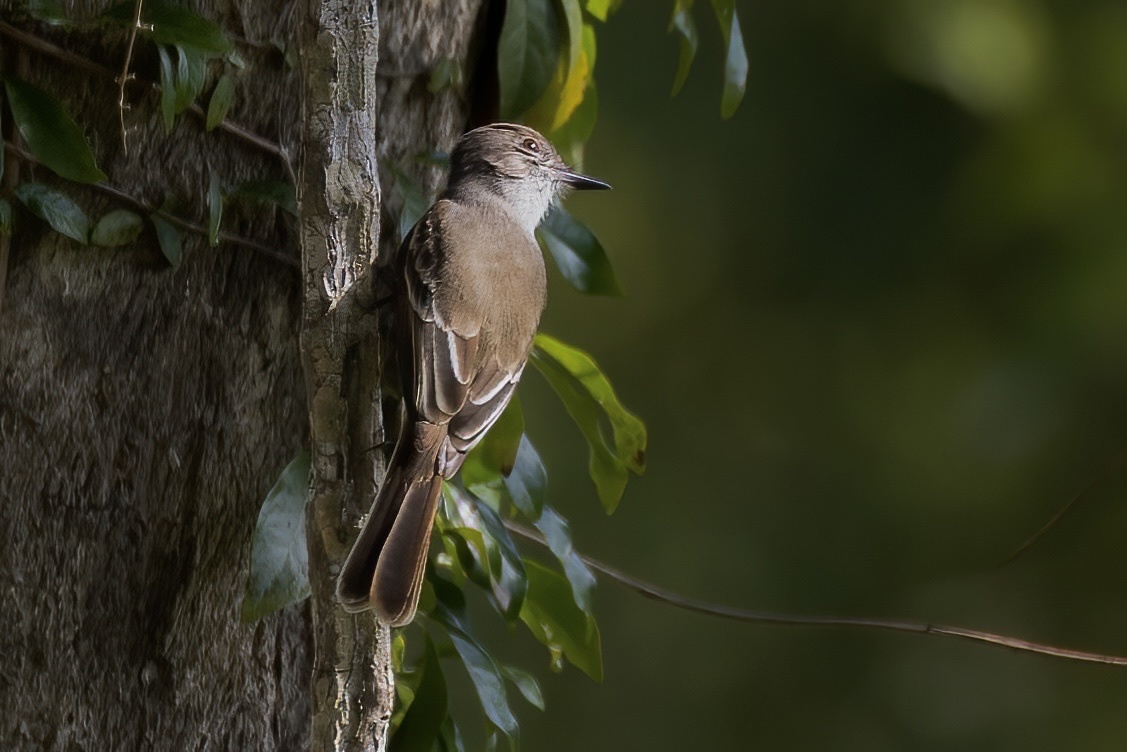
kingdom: Animalia
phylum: Chordata
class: Aves
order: Passeriformes
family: Tyrannidae
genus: Myiarchus
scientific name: Myiarchus antillarum
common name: Puerto rican flycatcher
